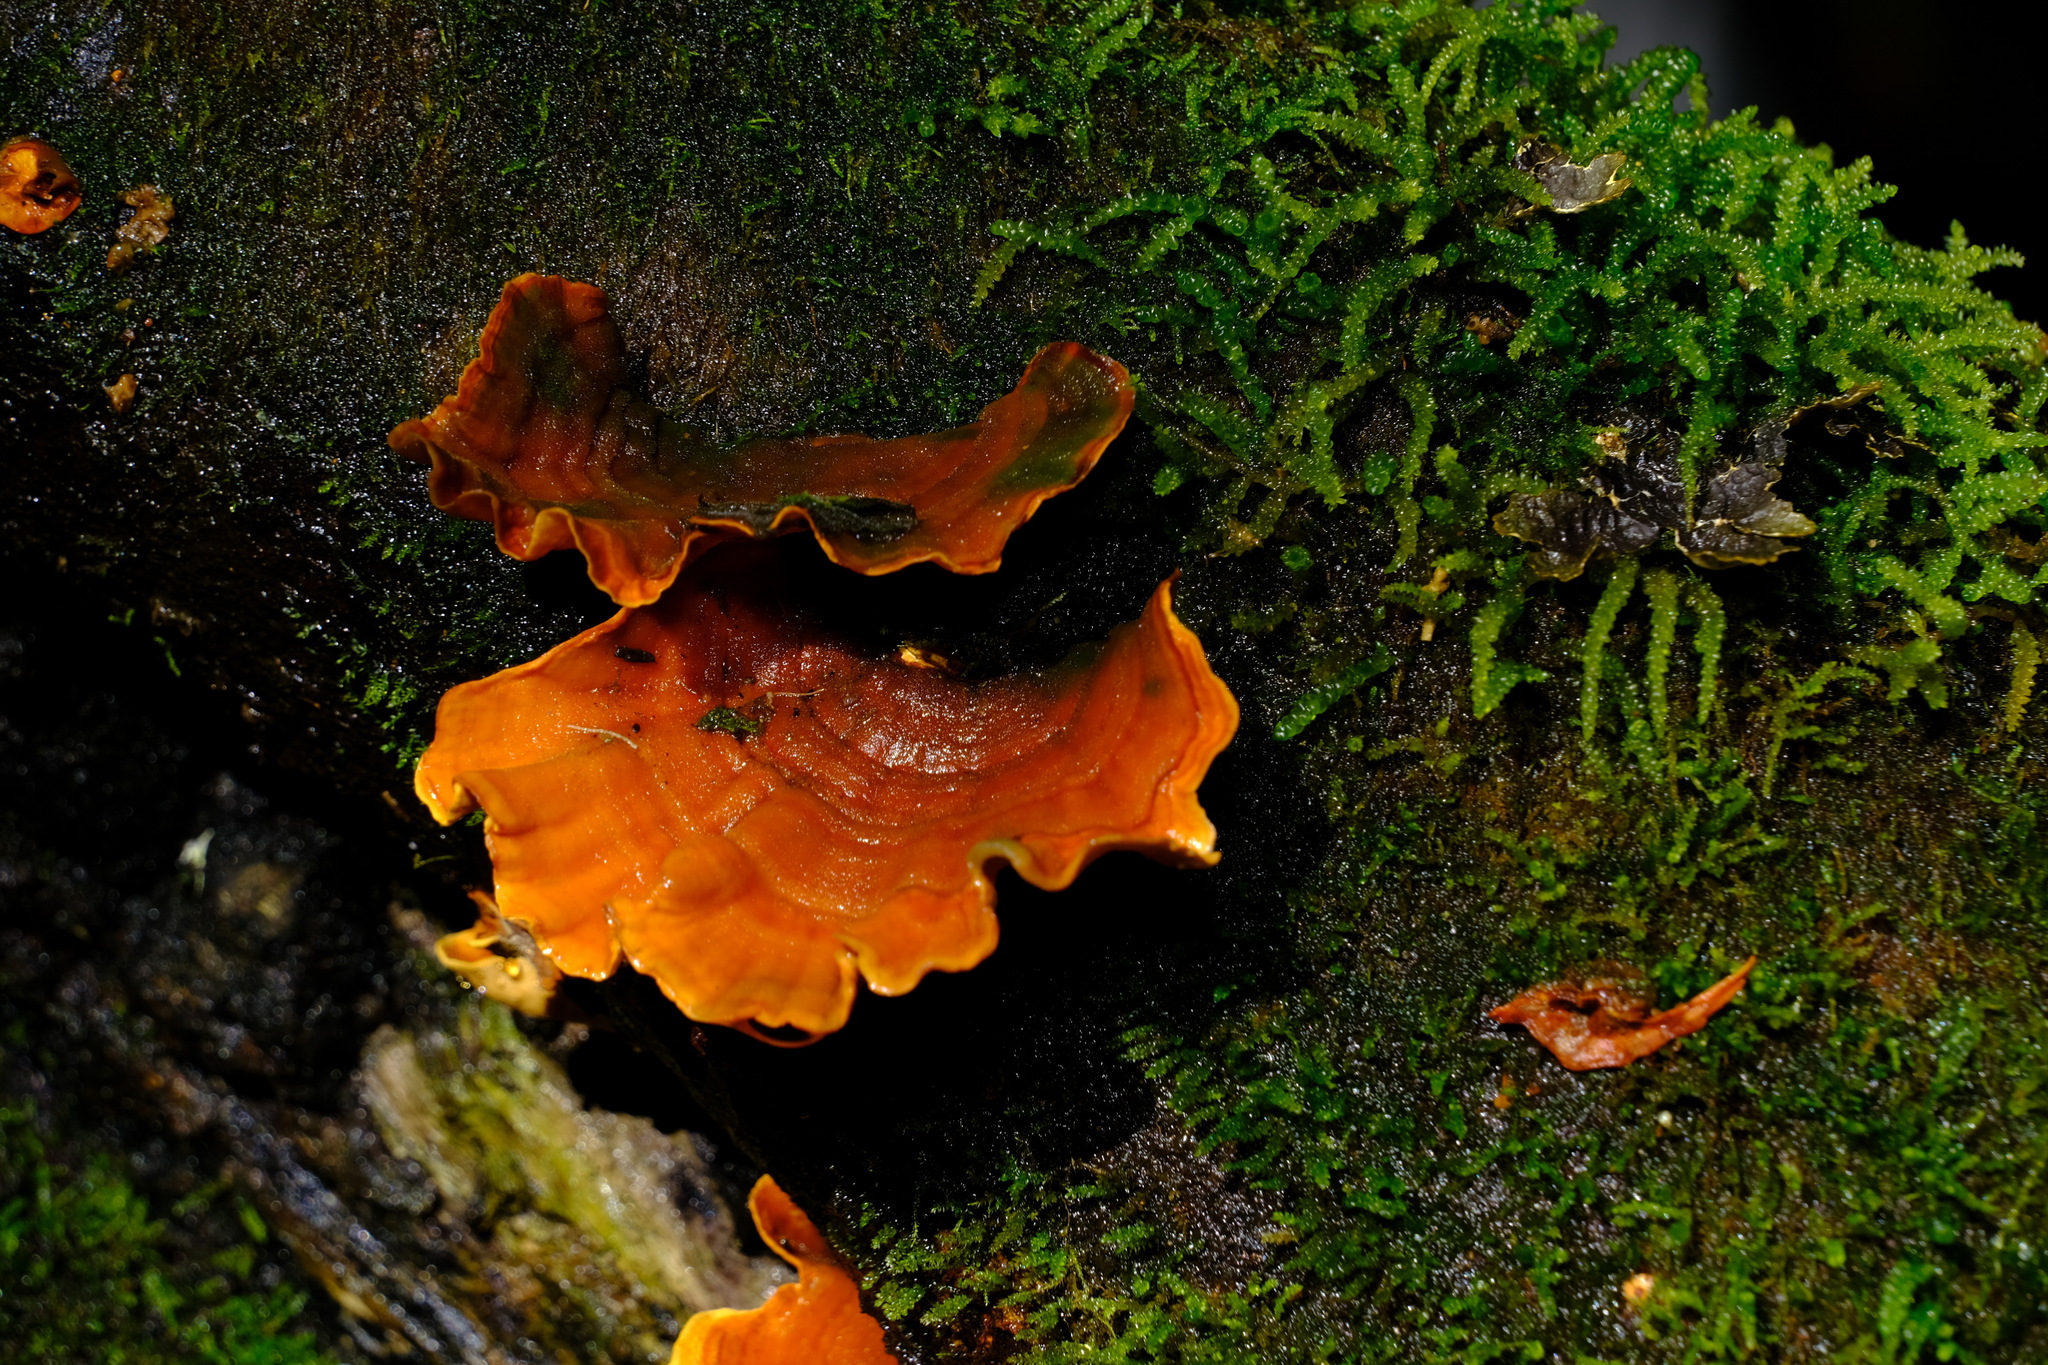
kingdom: Fungi
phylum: Basidiomycota
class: Agaricomycetes
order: Russulales
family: Stereaceae
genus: Stereum
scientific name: Stereum versicolor
